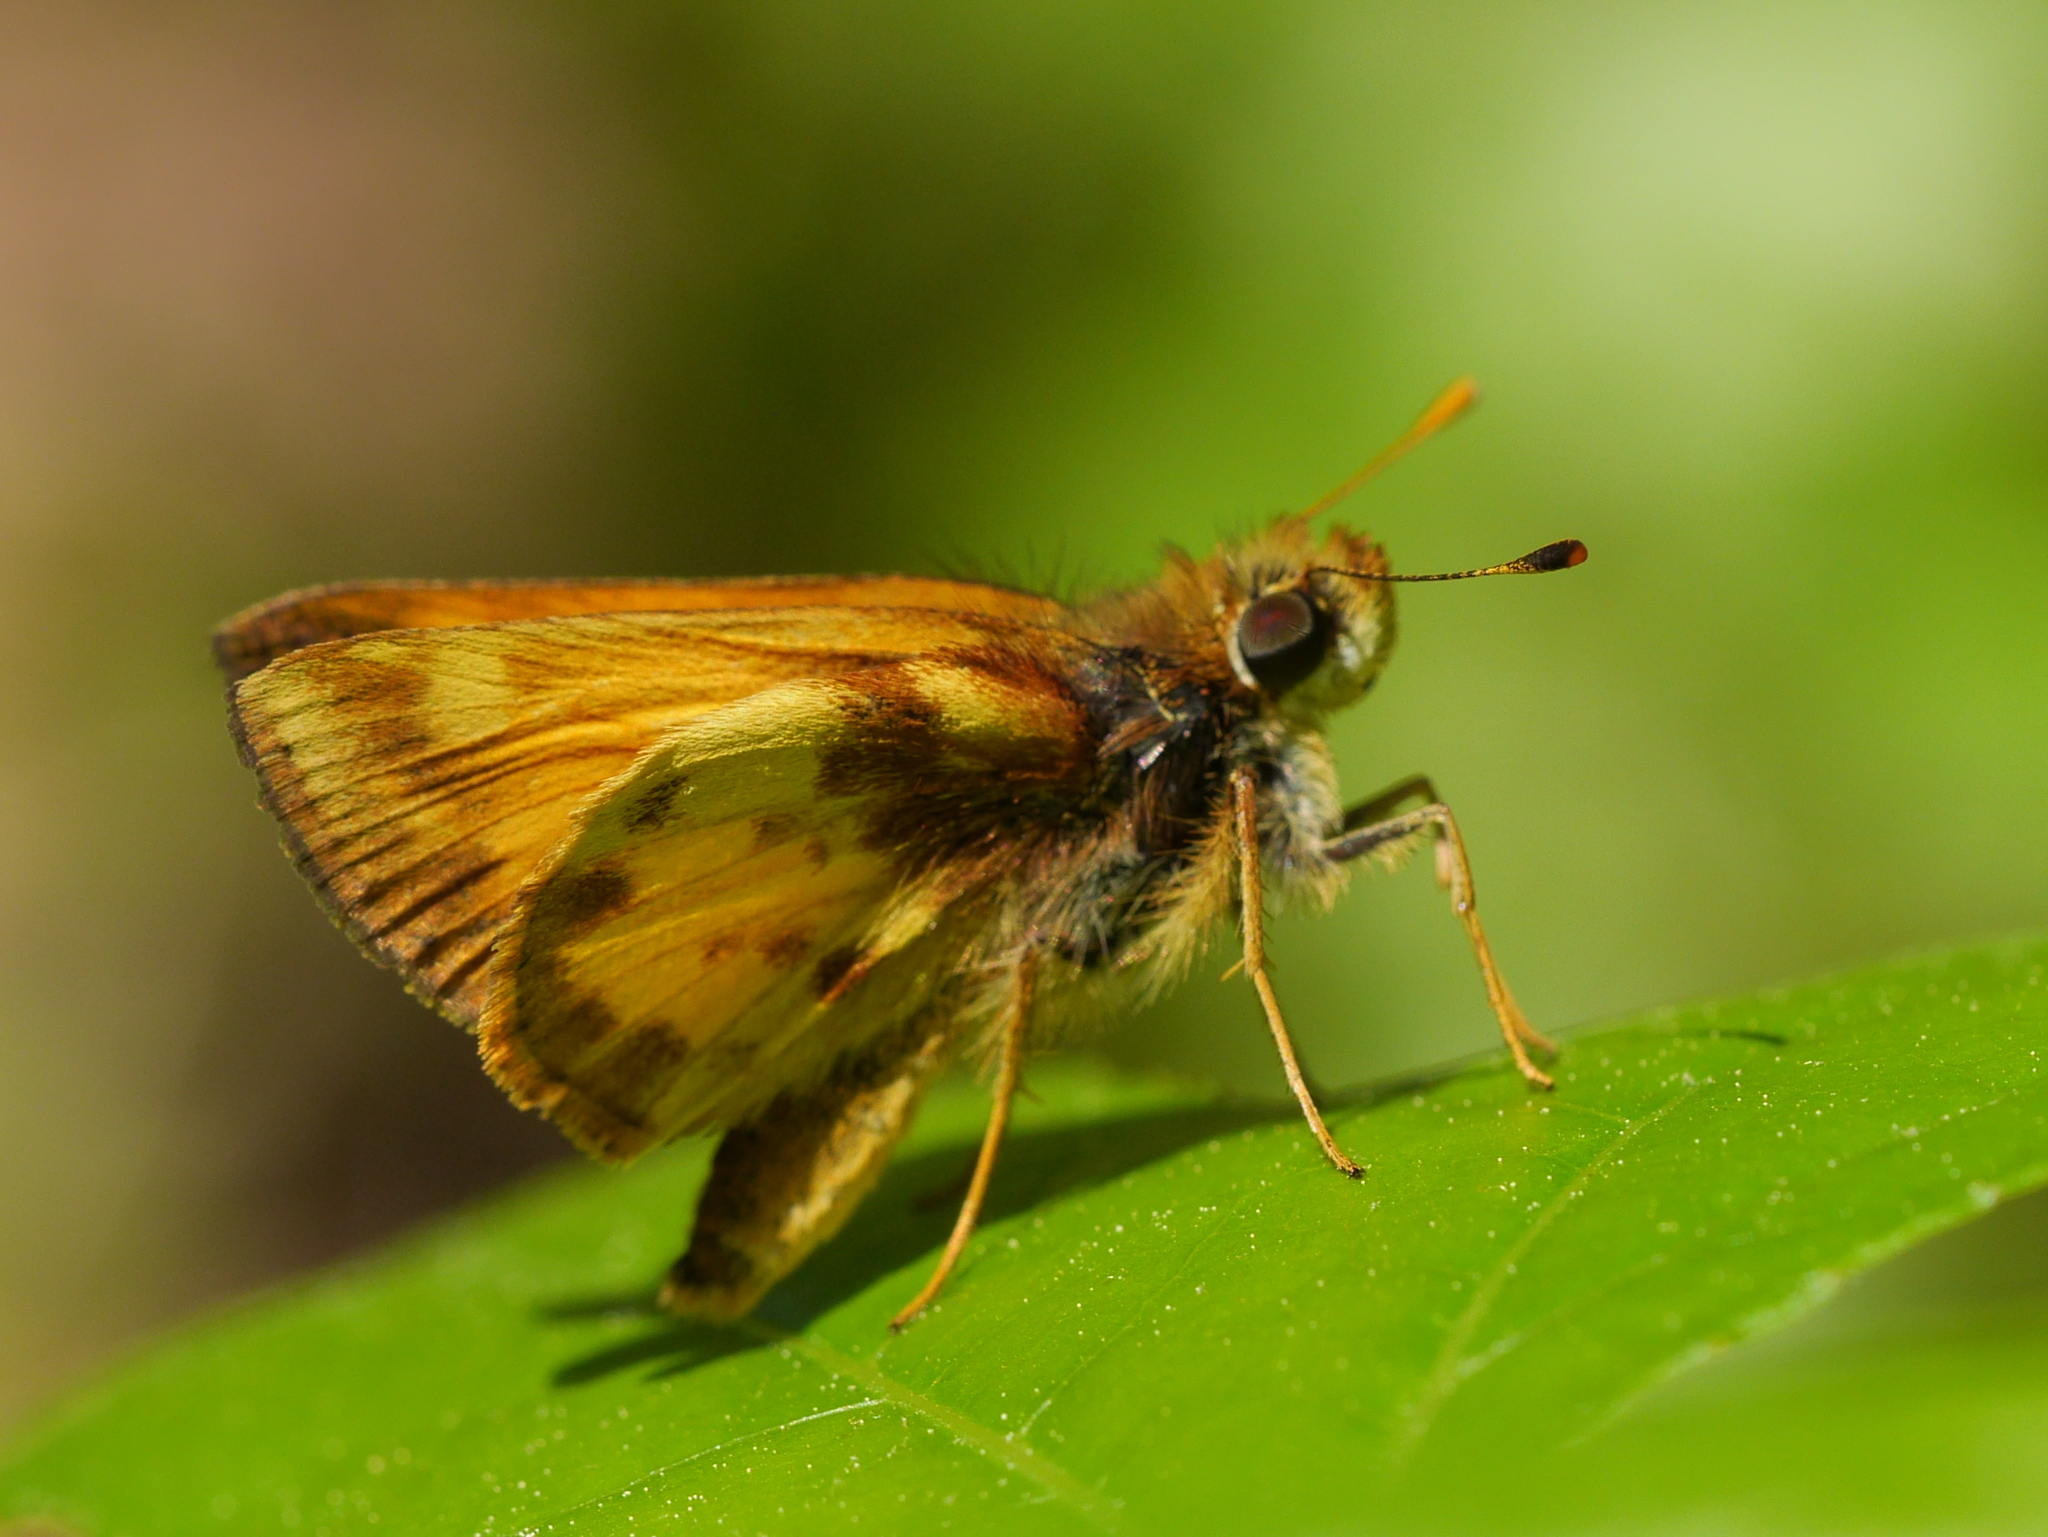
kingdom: Animalia
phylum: Arthropoda
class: Insecta
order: Lepidoptera
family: Hesperiidae
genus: Lon
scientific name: Lon zabulon
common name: Zabulon skipper
